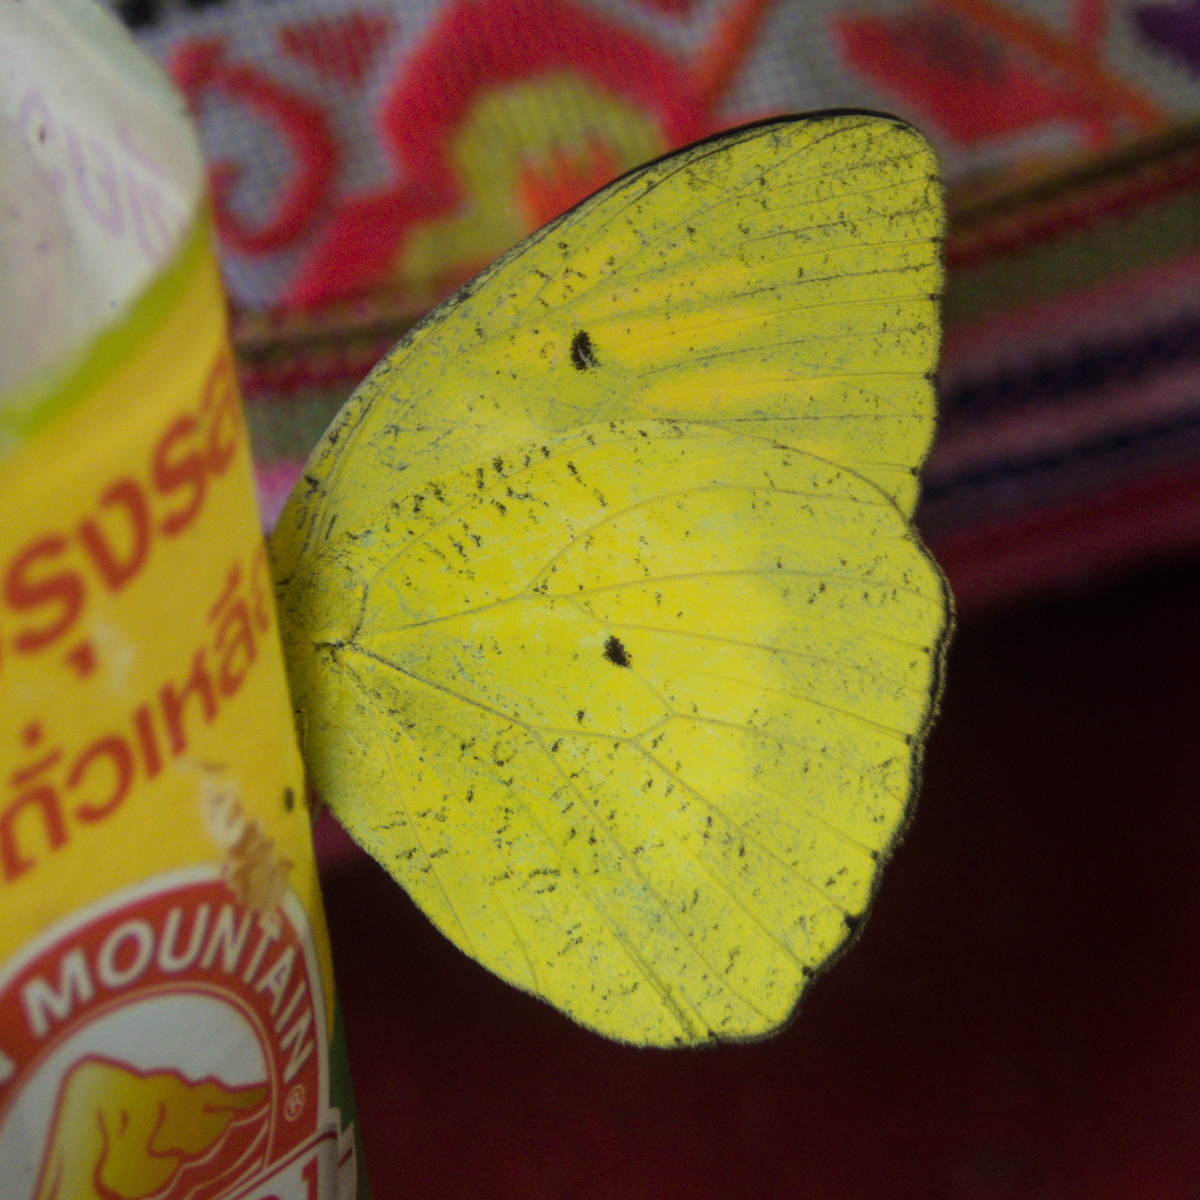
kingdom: Animalia
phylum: Arthropoda
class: Insecta
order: Lepidoptera
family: Pieridae
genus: Ixias
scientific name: Ixias pyrene
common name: Yellow orange tip
